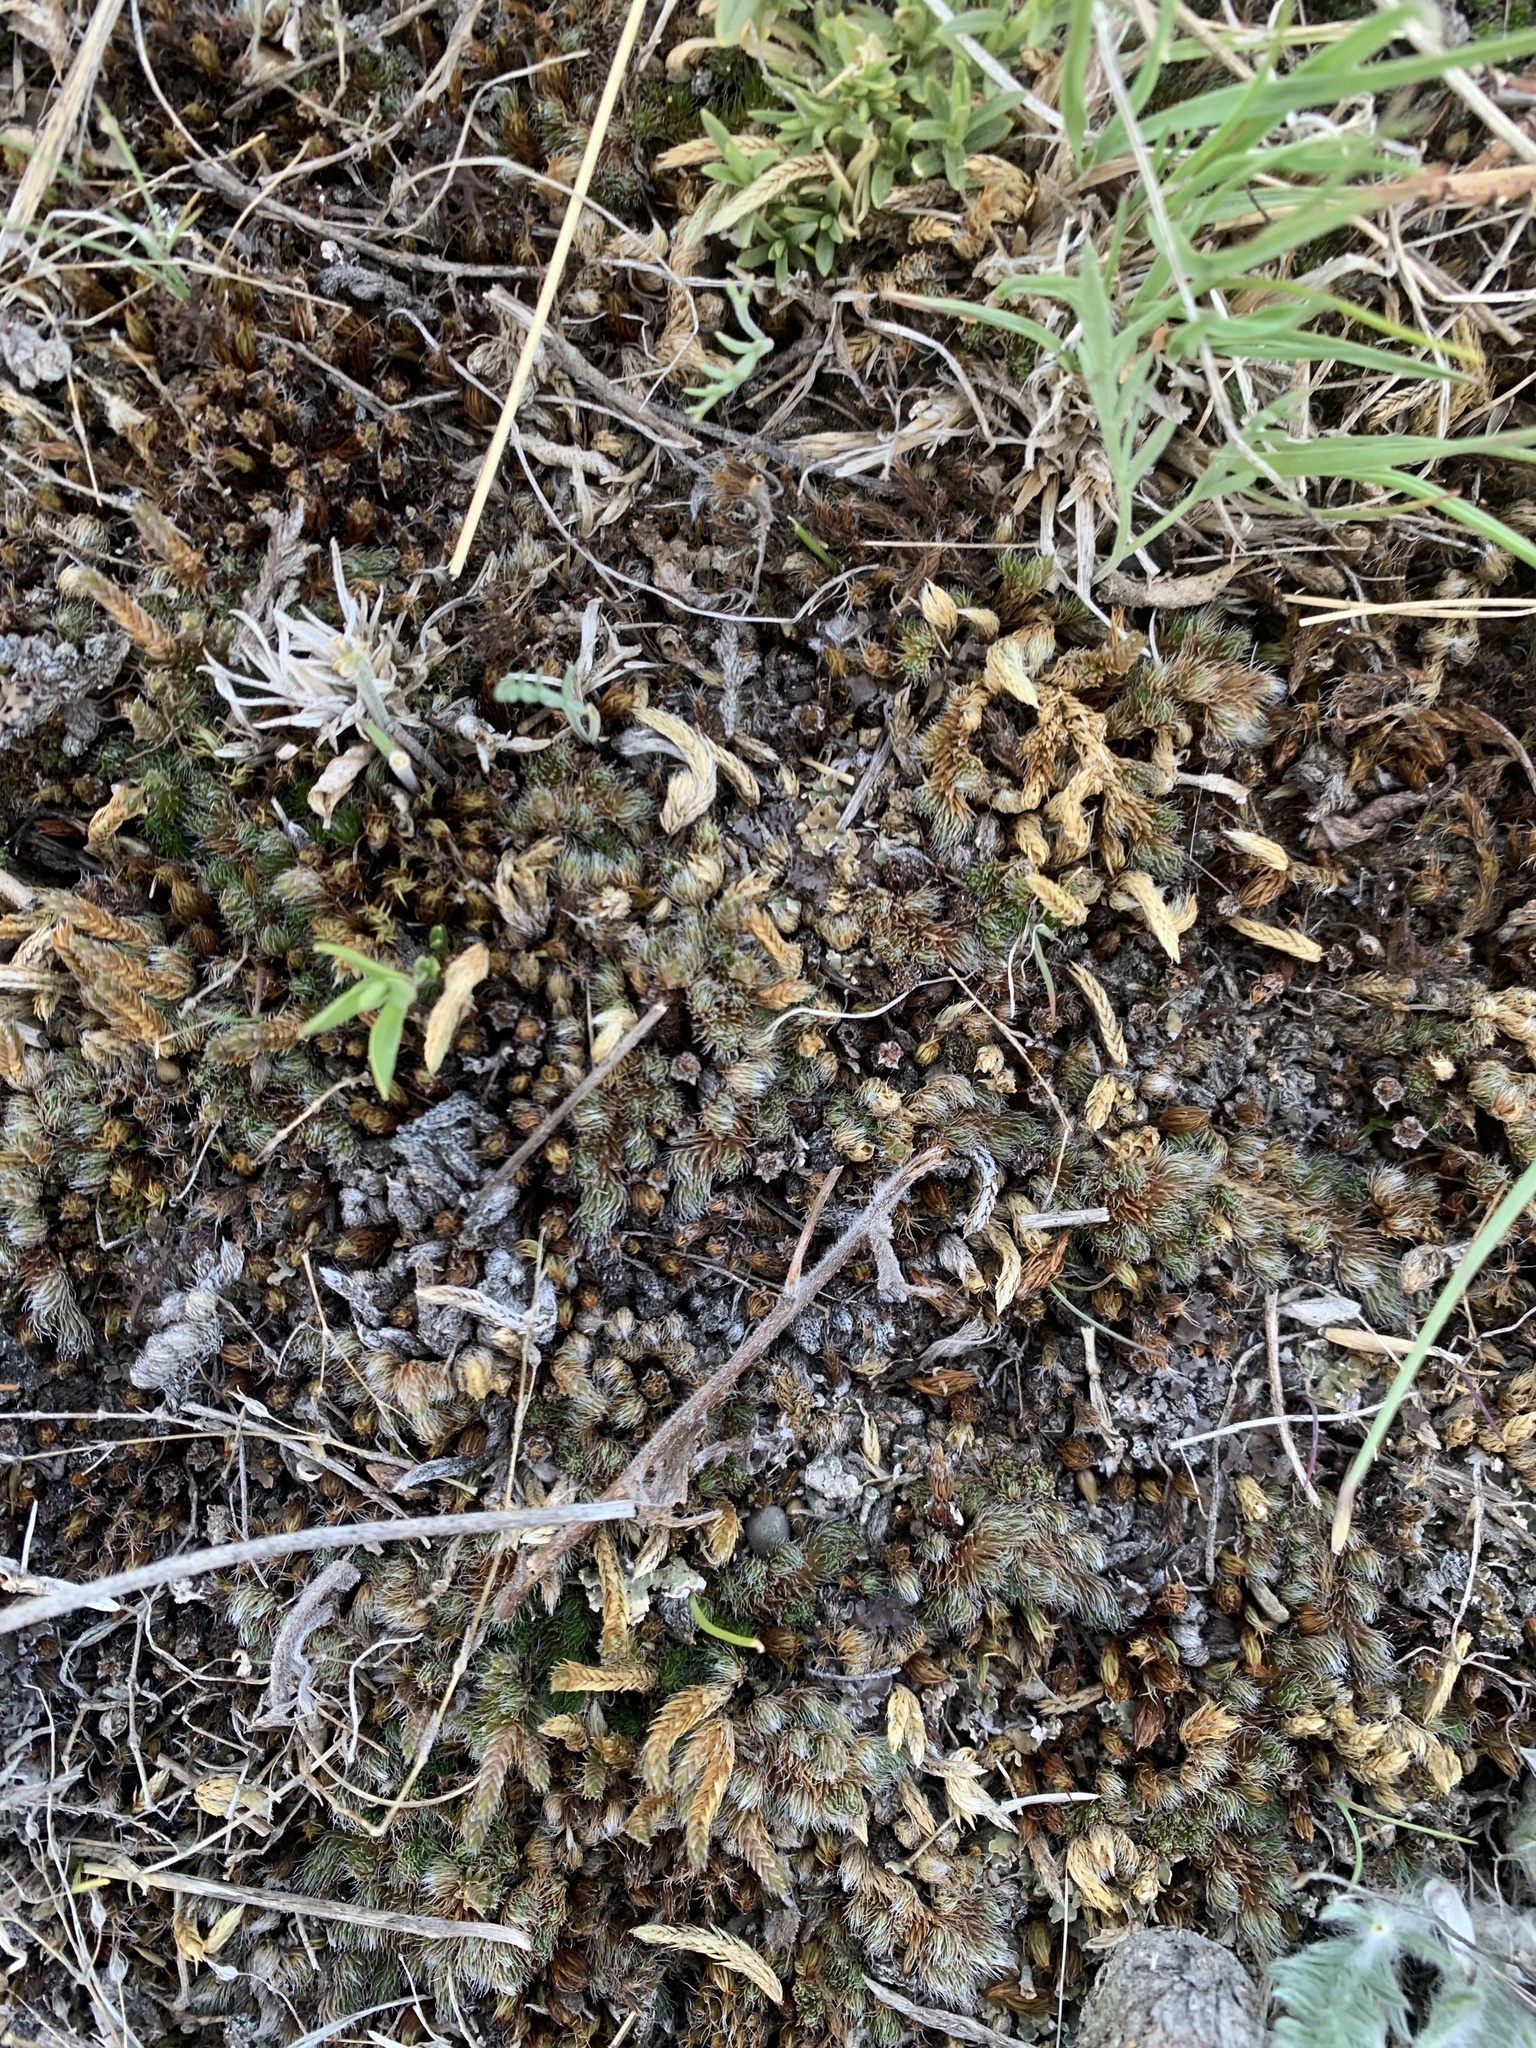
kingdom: Plantae
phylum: Tracheophyta
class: Lycopodiopsida
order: Selaginellales
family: Selaginellaceae
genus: Selaginella
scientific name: Selaginella densa
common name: Mountain spike-moss
